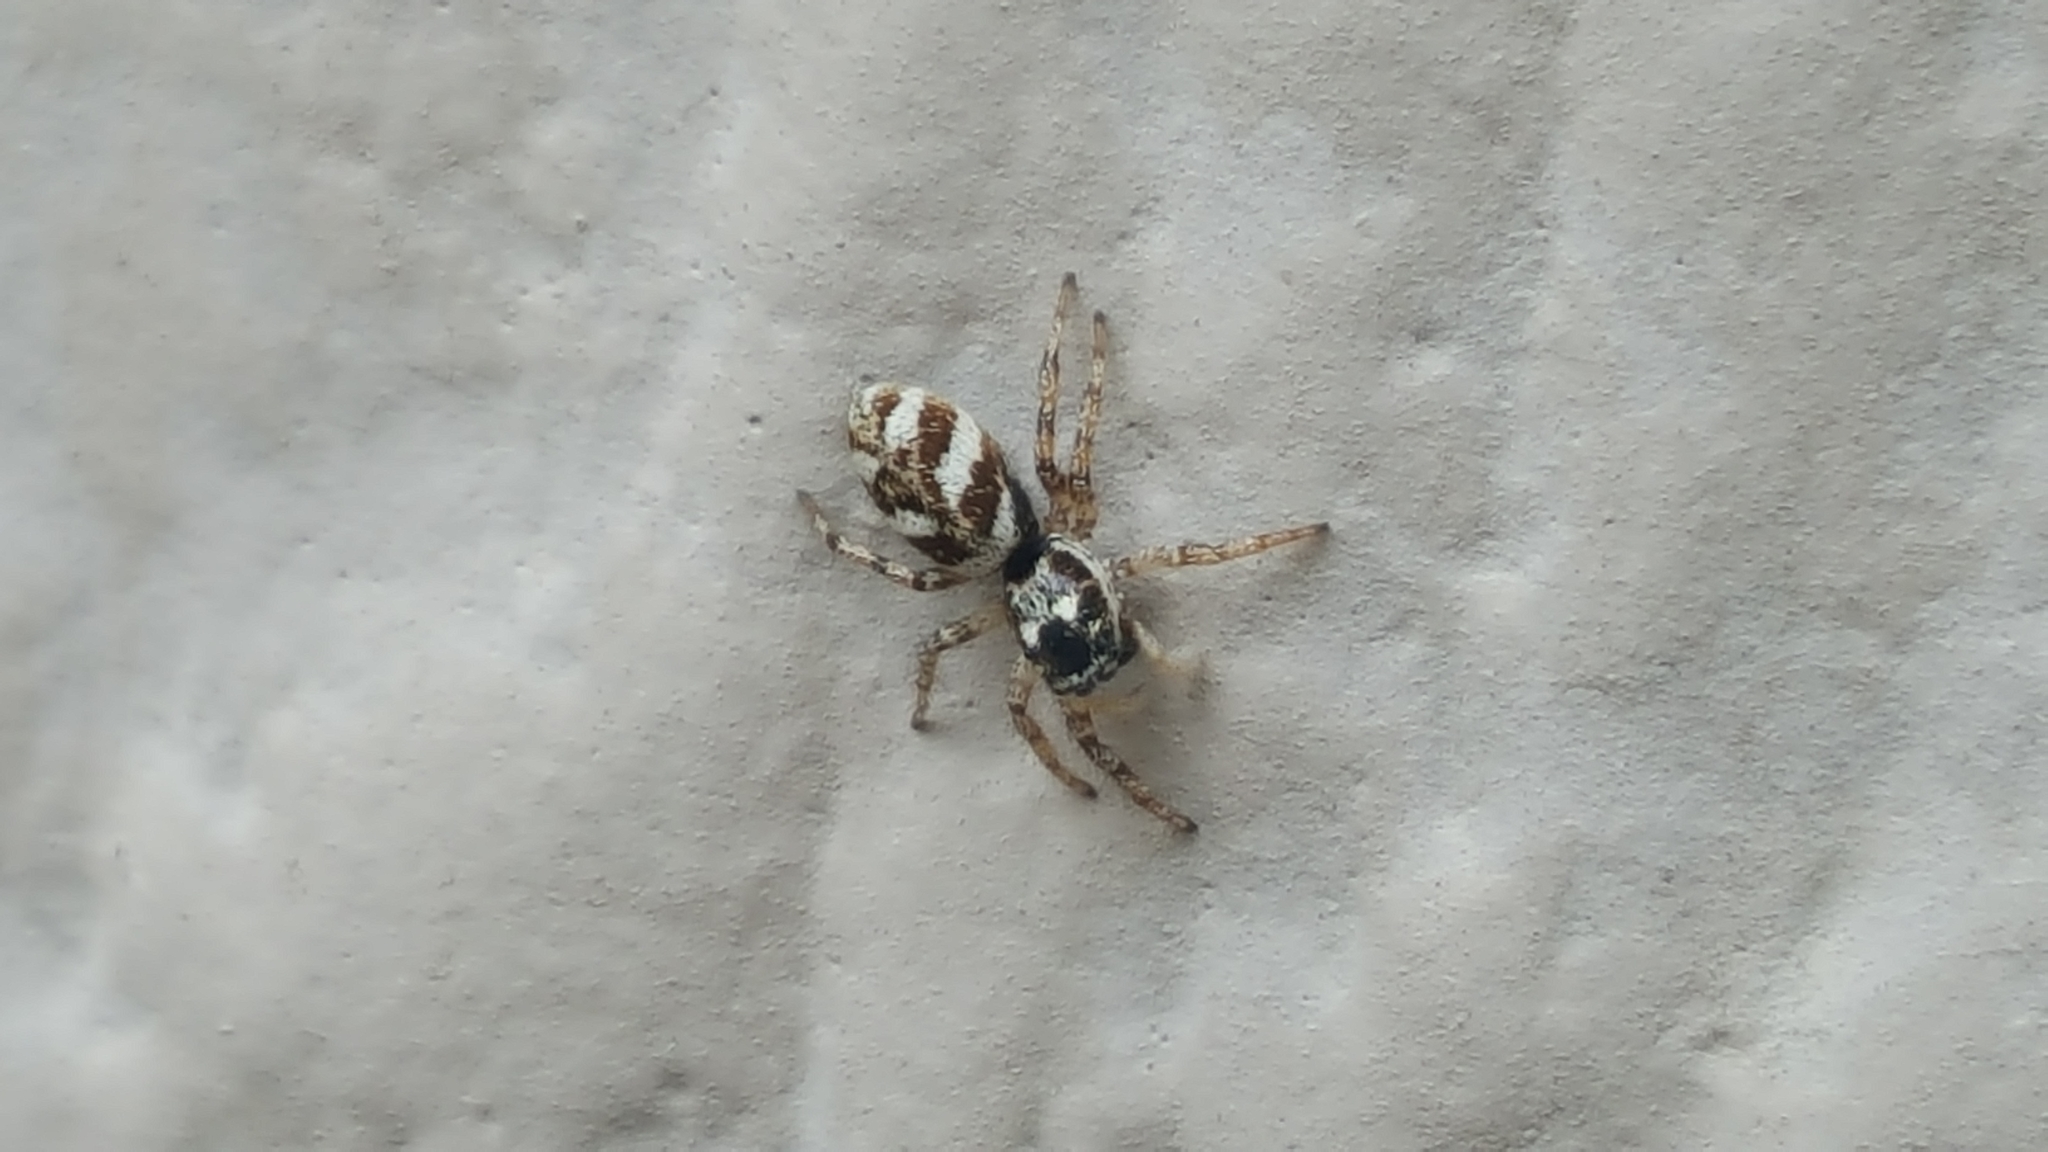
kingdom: Animalia
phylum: Arthropoda
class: Arachnida
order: Araneae
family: Salticidae
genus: Salticus
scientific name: Salticus scenicus
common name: Zebra jumper
